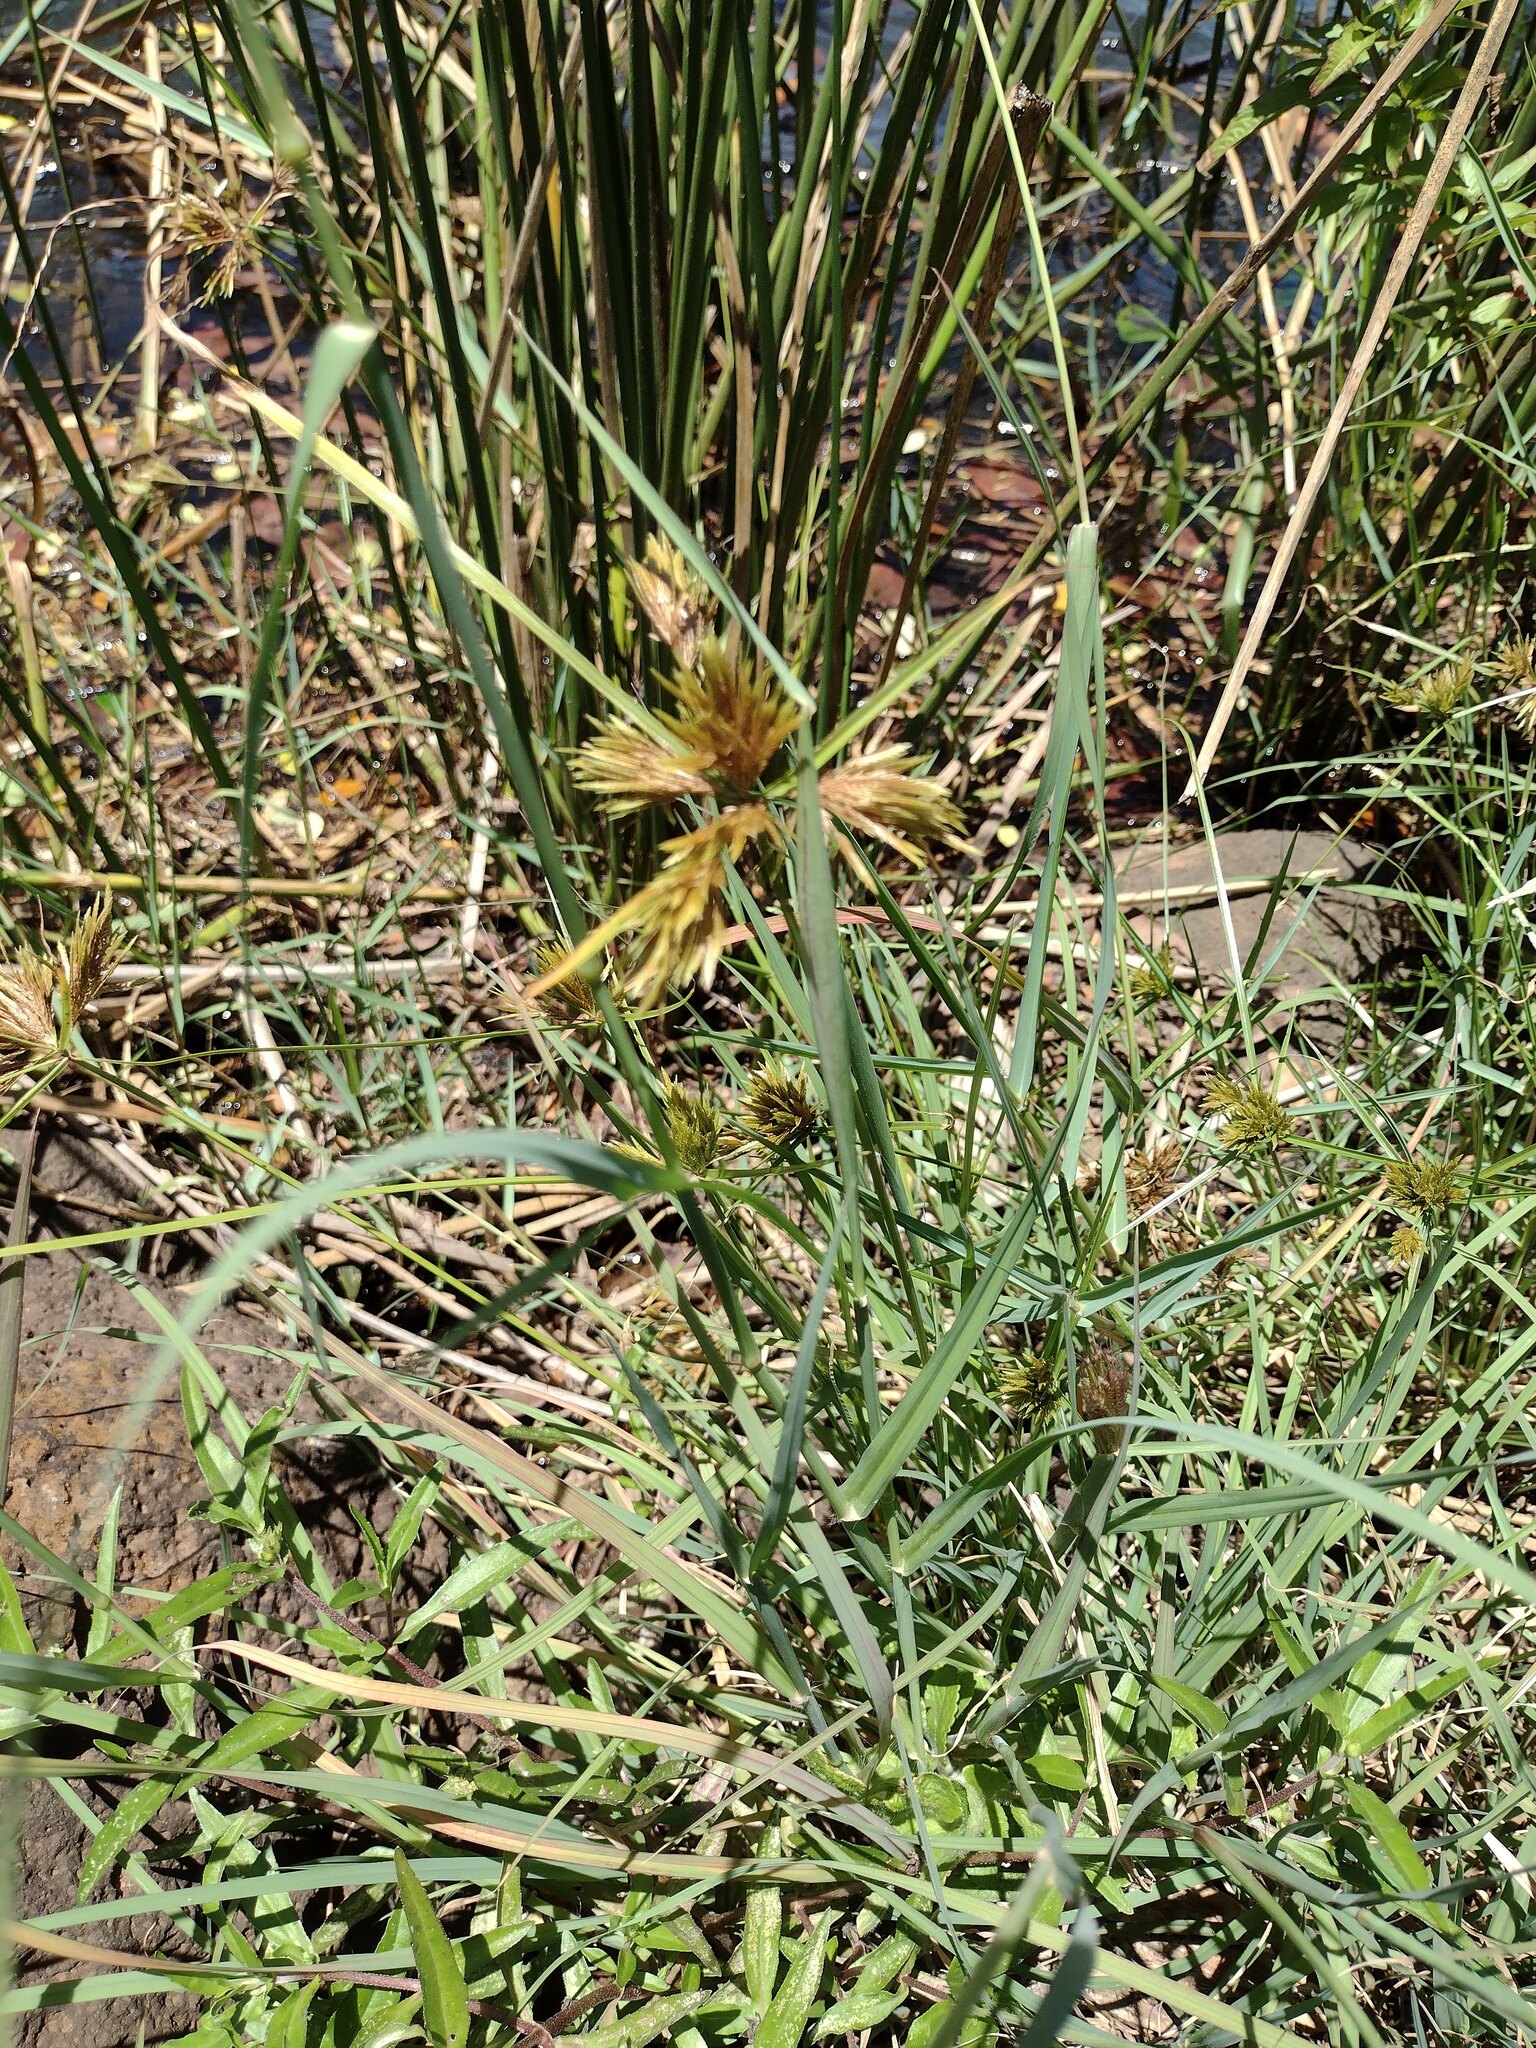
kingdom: Plantae
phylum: Tracheophyta
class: Liliopsida
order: Poales
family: Cyperaceae
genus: Cyperus
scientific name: Cyperus polystachyos
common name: Bunchy flat sedge
